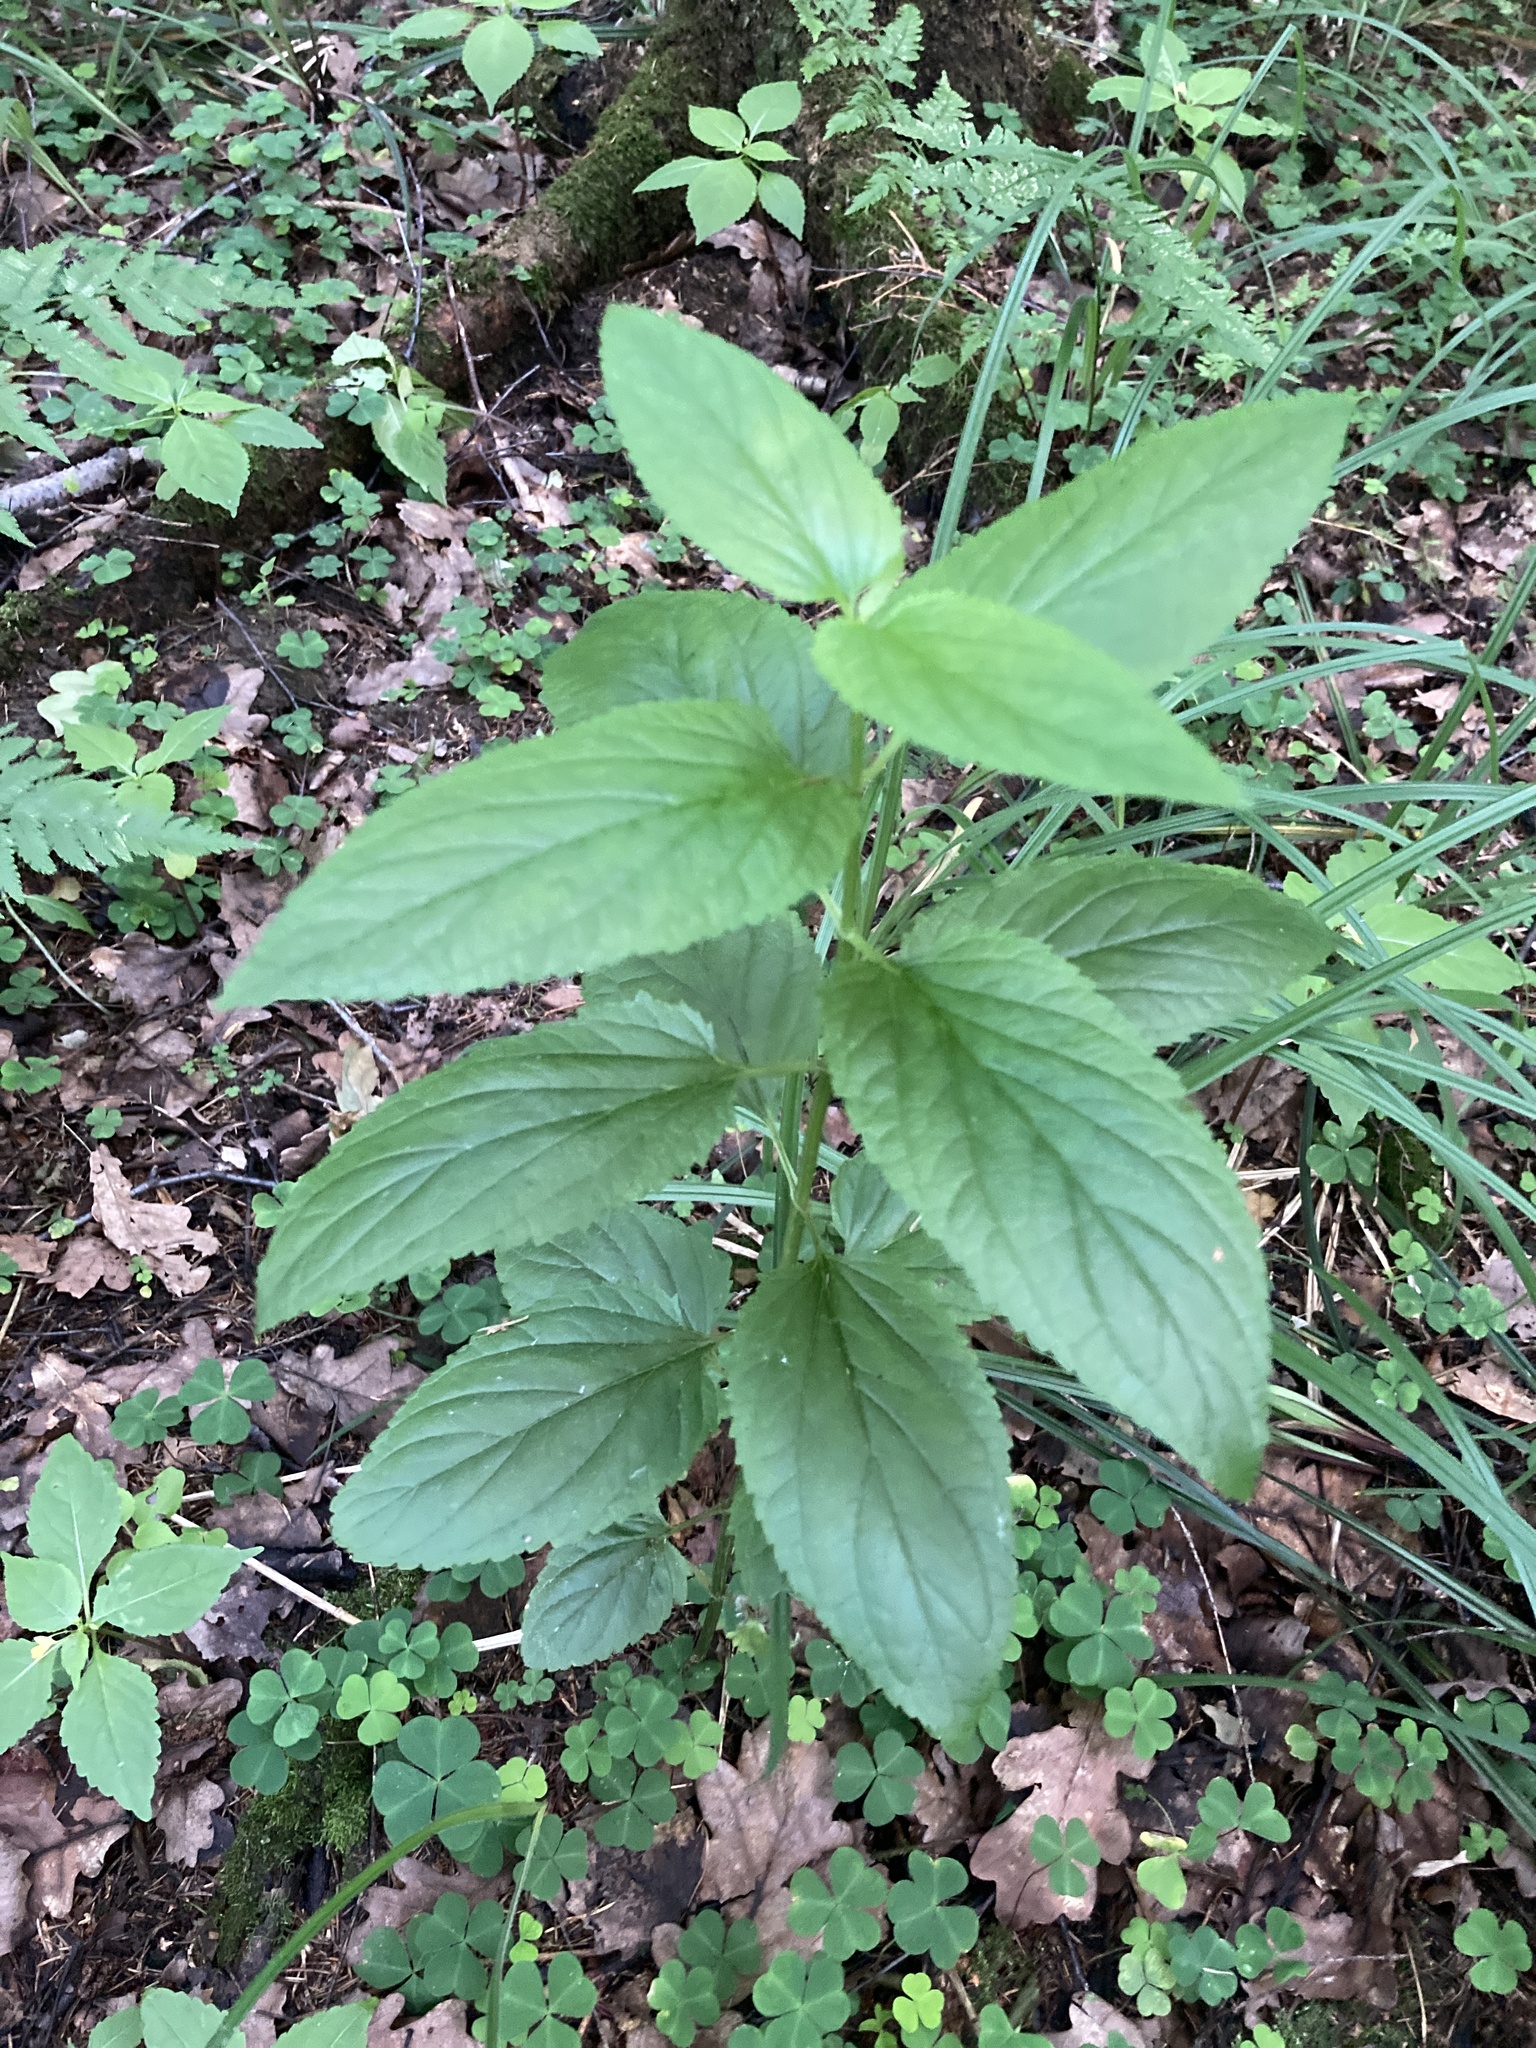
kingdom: Plantae
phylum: Tracheophyta
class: Magnoliopsida
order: Lamiales
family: Scrophulariaceae
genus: Scrophularia
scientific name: Scrophularia nodosa
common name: Common figwort
